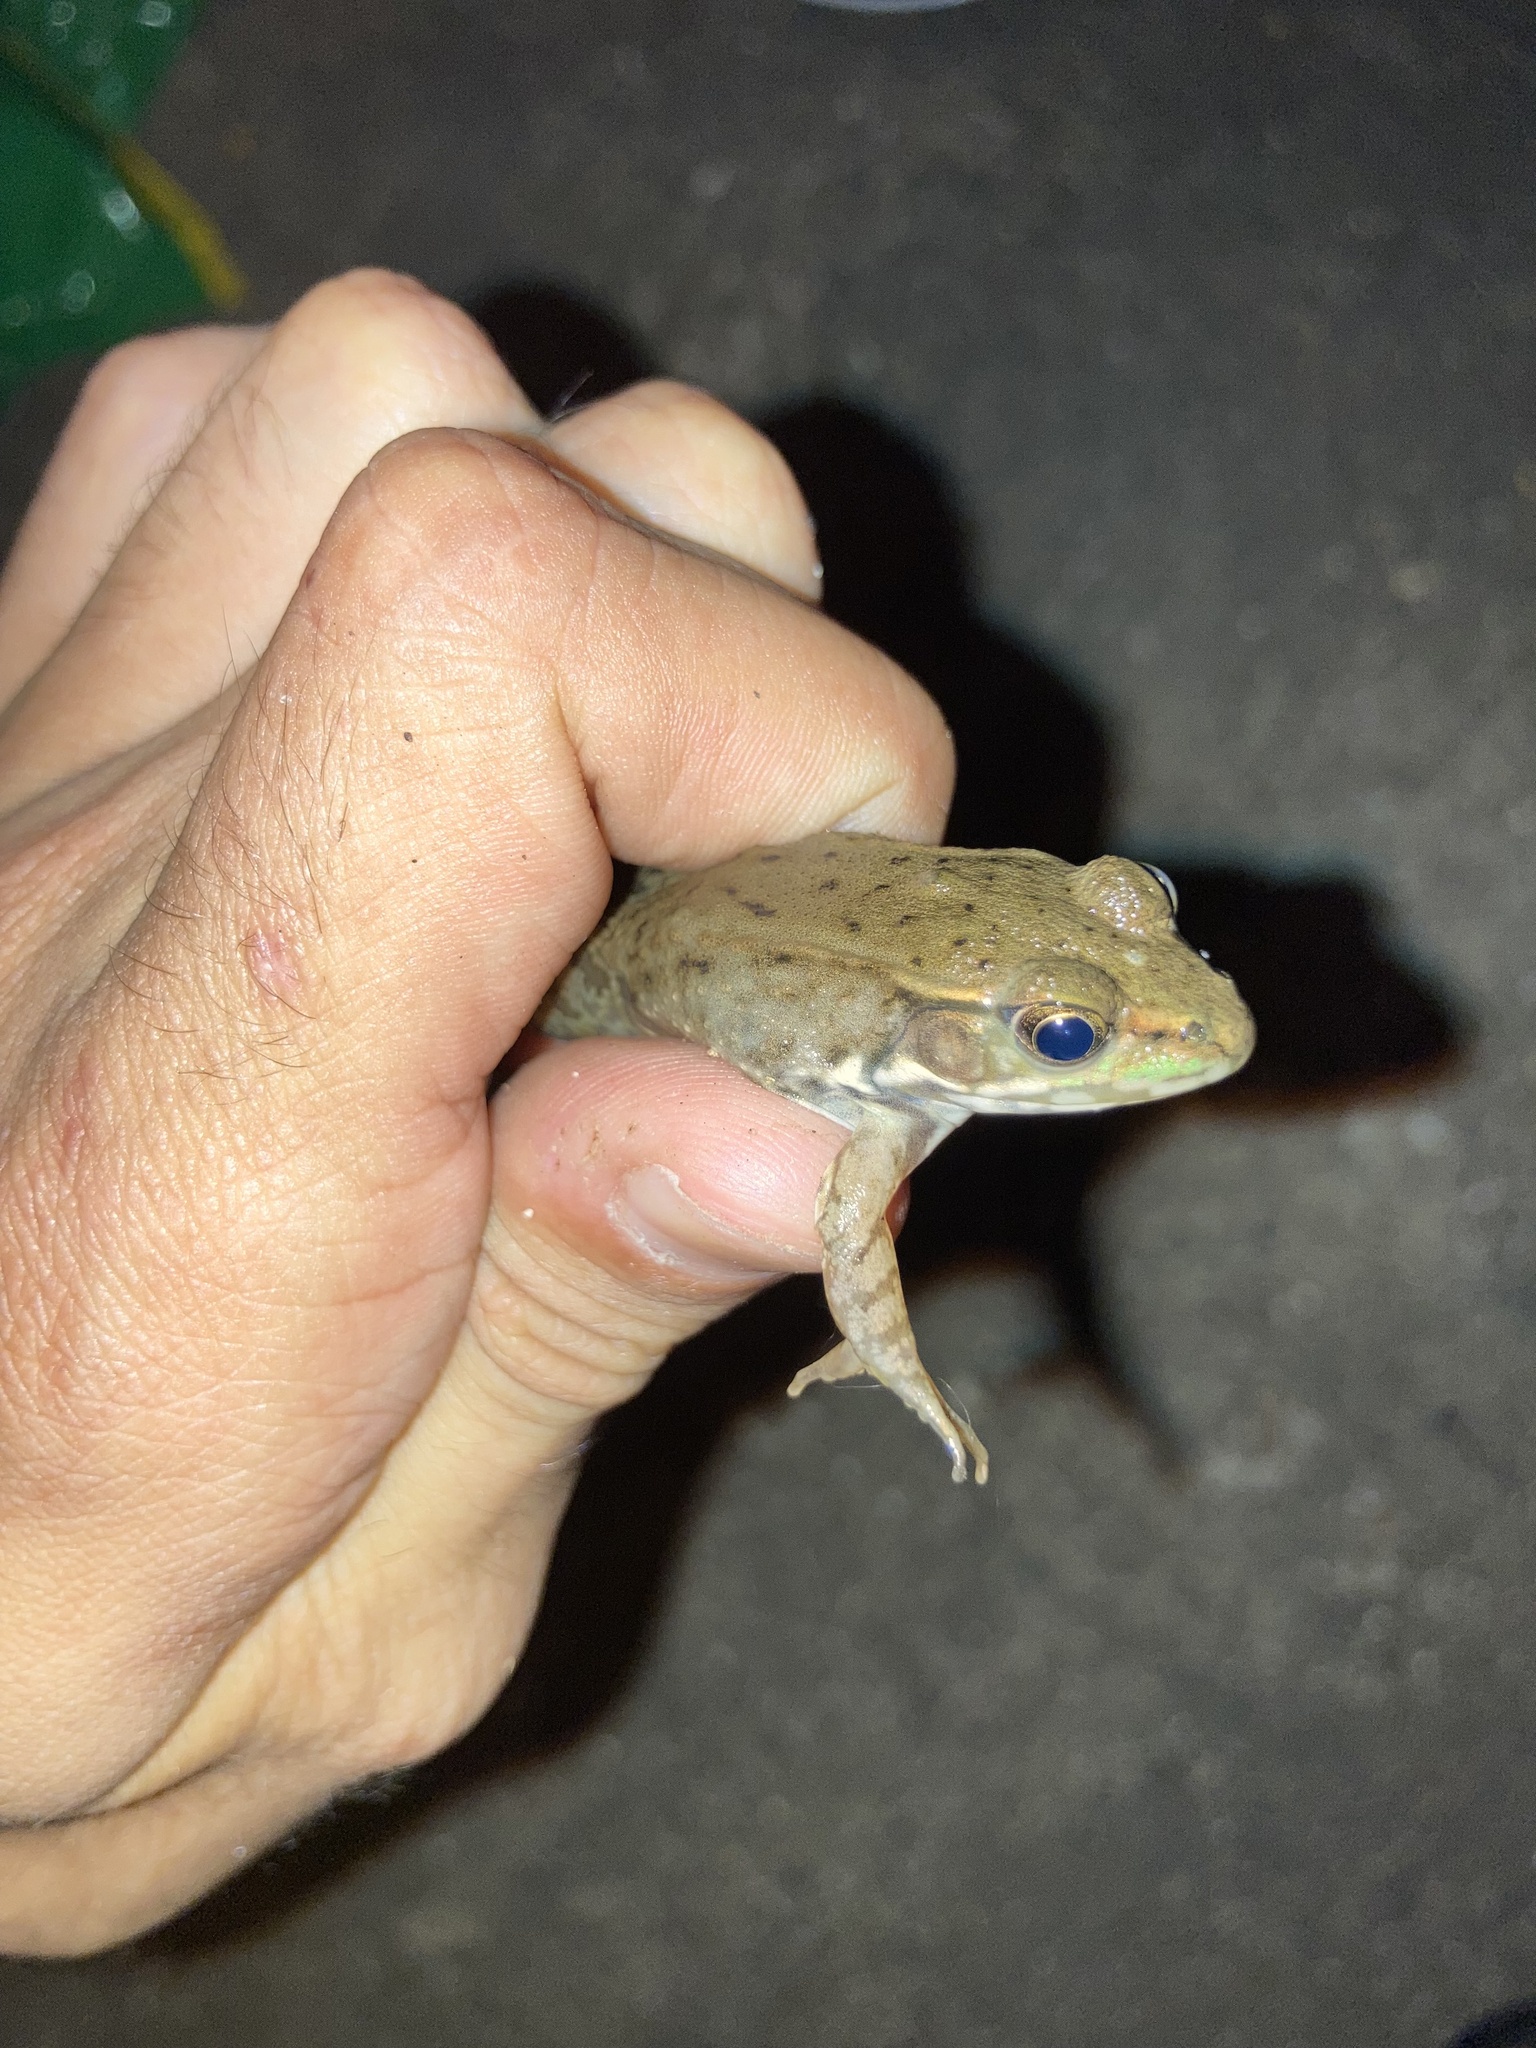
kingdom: Animalia
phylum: Chordata
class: Amphibia
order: Anura
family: Ranidae
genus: Lithobates
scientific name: Lithobates clamitans
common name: Green frog
